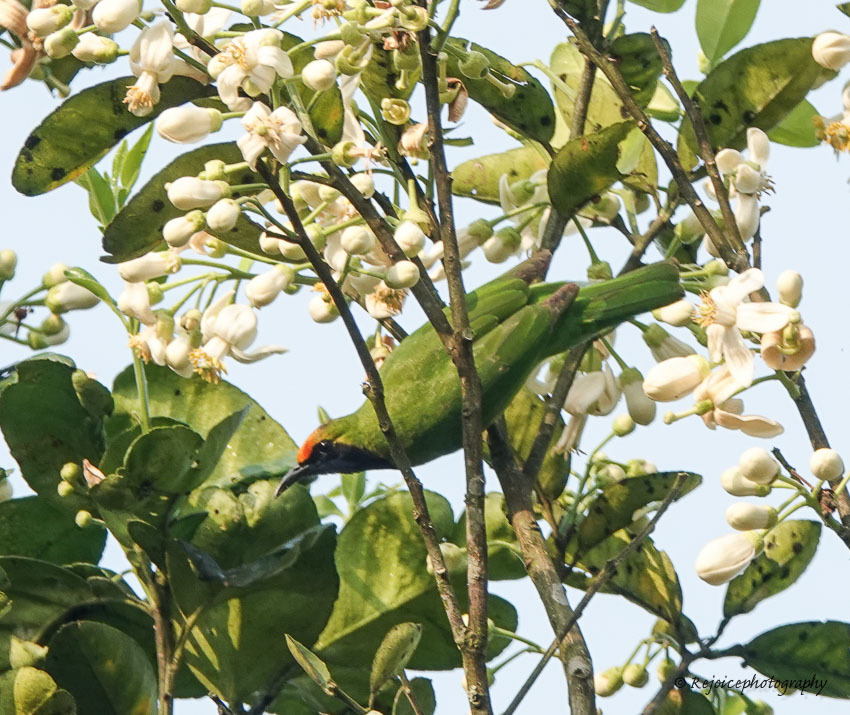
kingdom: Animalia
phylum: Chordata
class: Aves
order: Passeriformes
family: Chloropseidae
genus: Chloropsis
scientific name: Chloropsis aurifrons
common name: Golden-fronted leafbird
